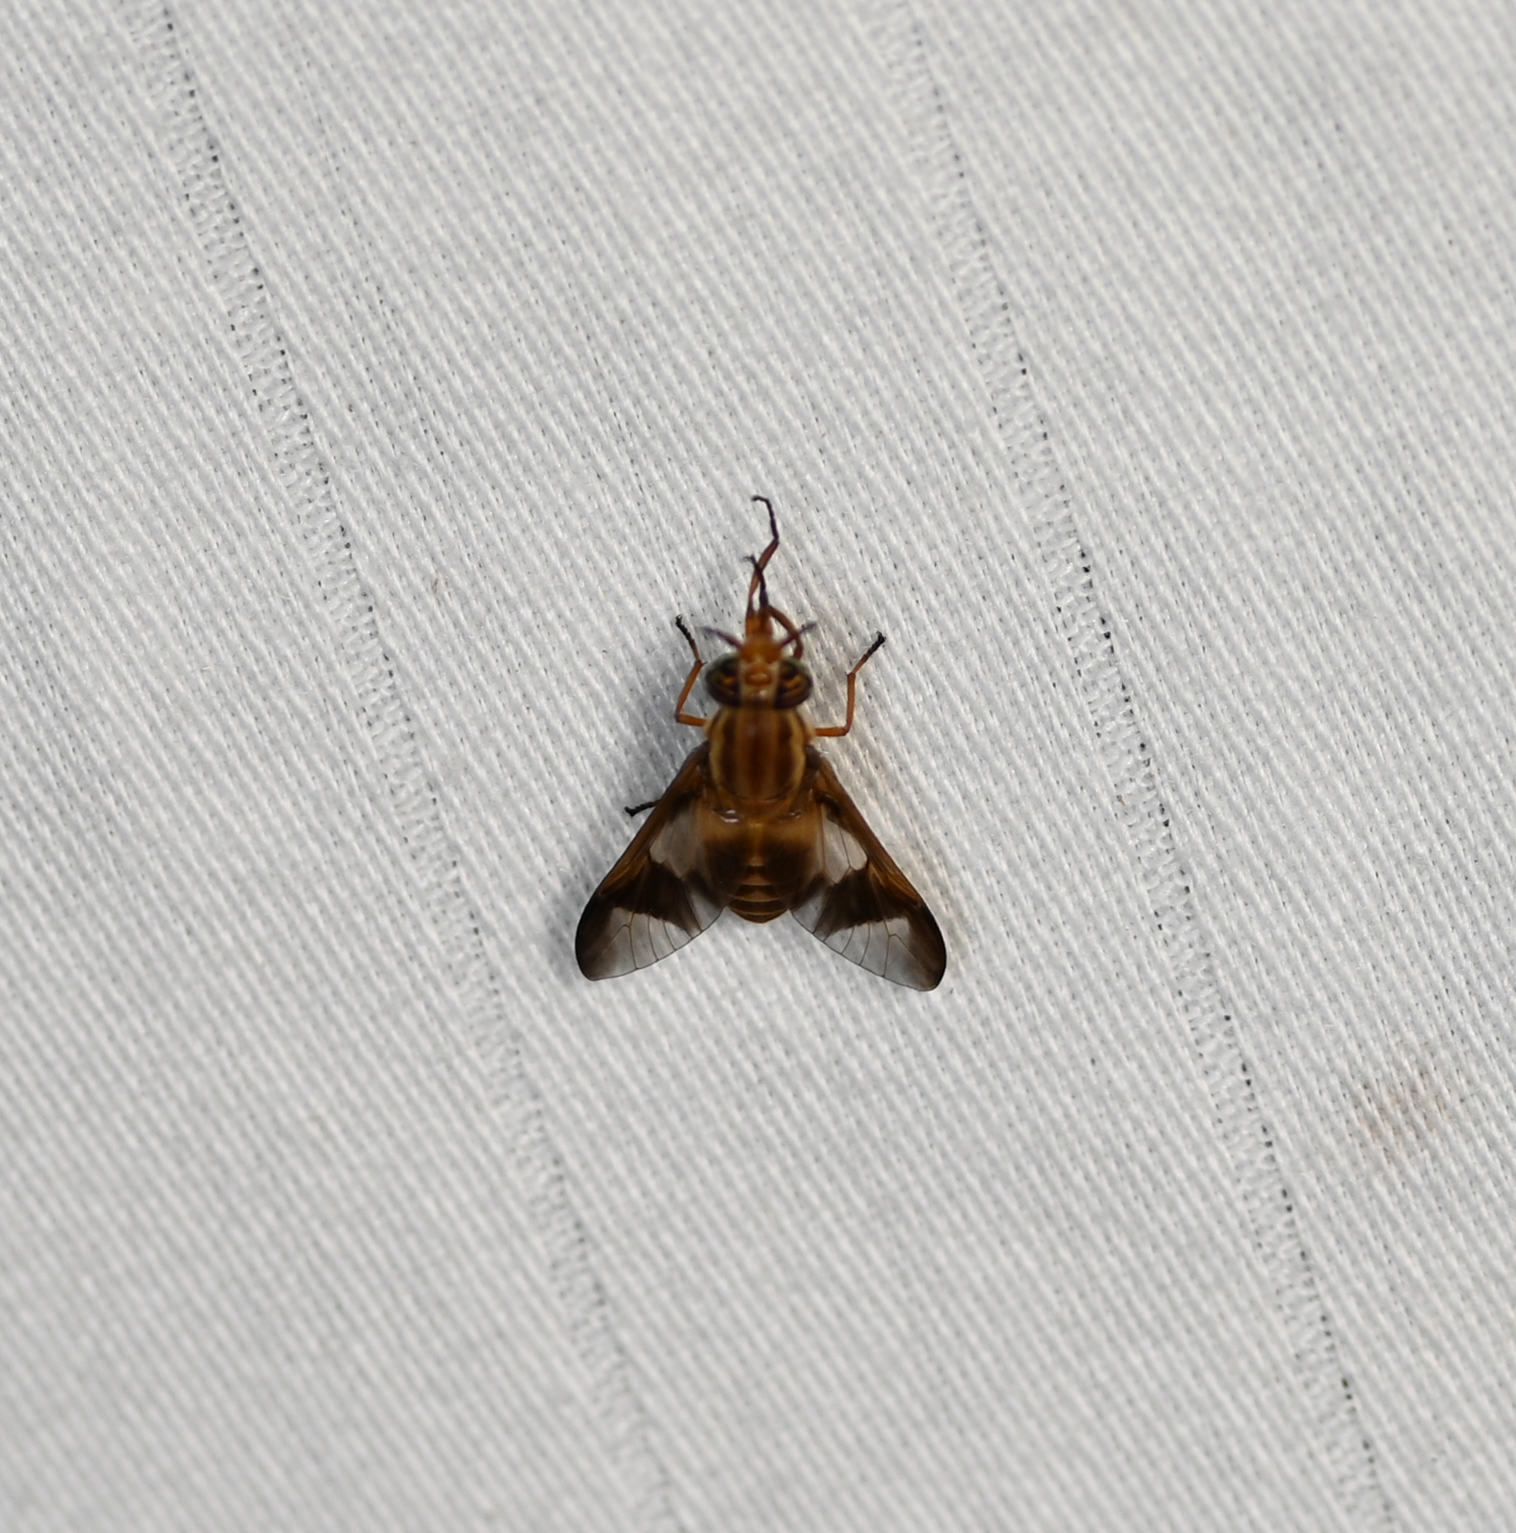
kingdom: Animalia
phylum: Arthropoda
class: Insecta
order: Diptera
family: Tabanidae
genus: Chrysops
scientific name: Chrysops flavidus
